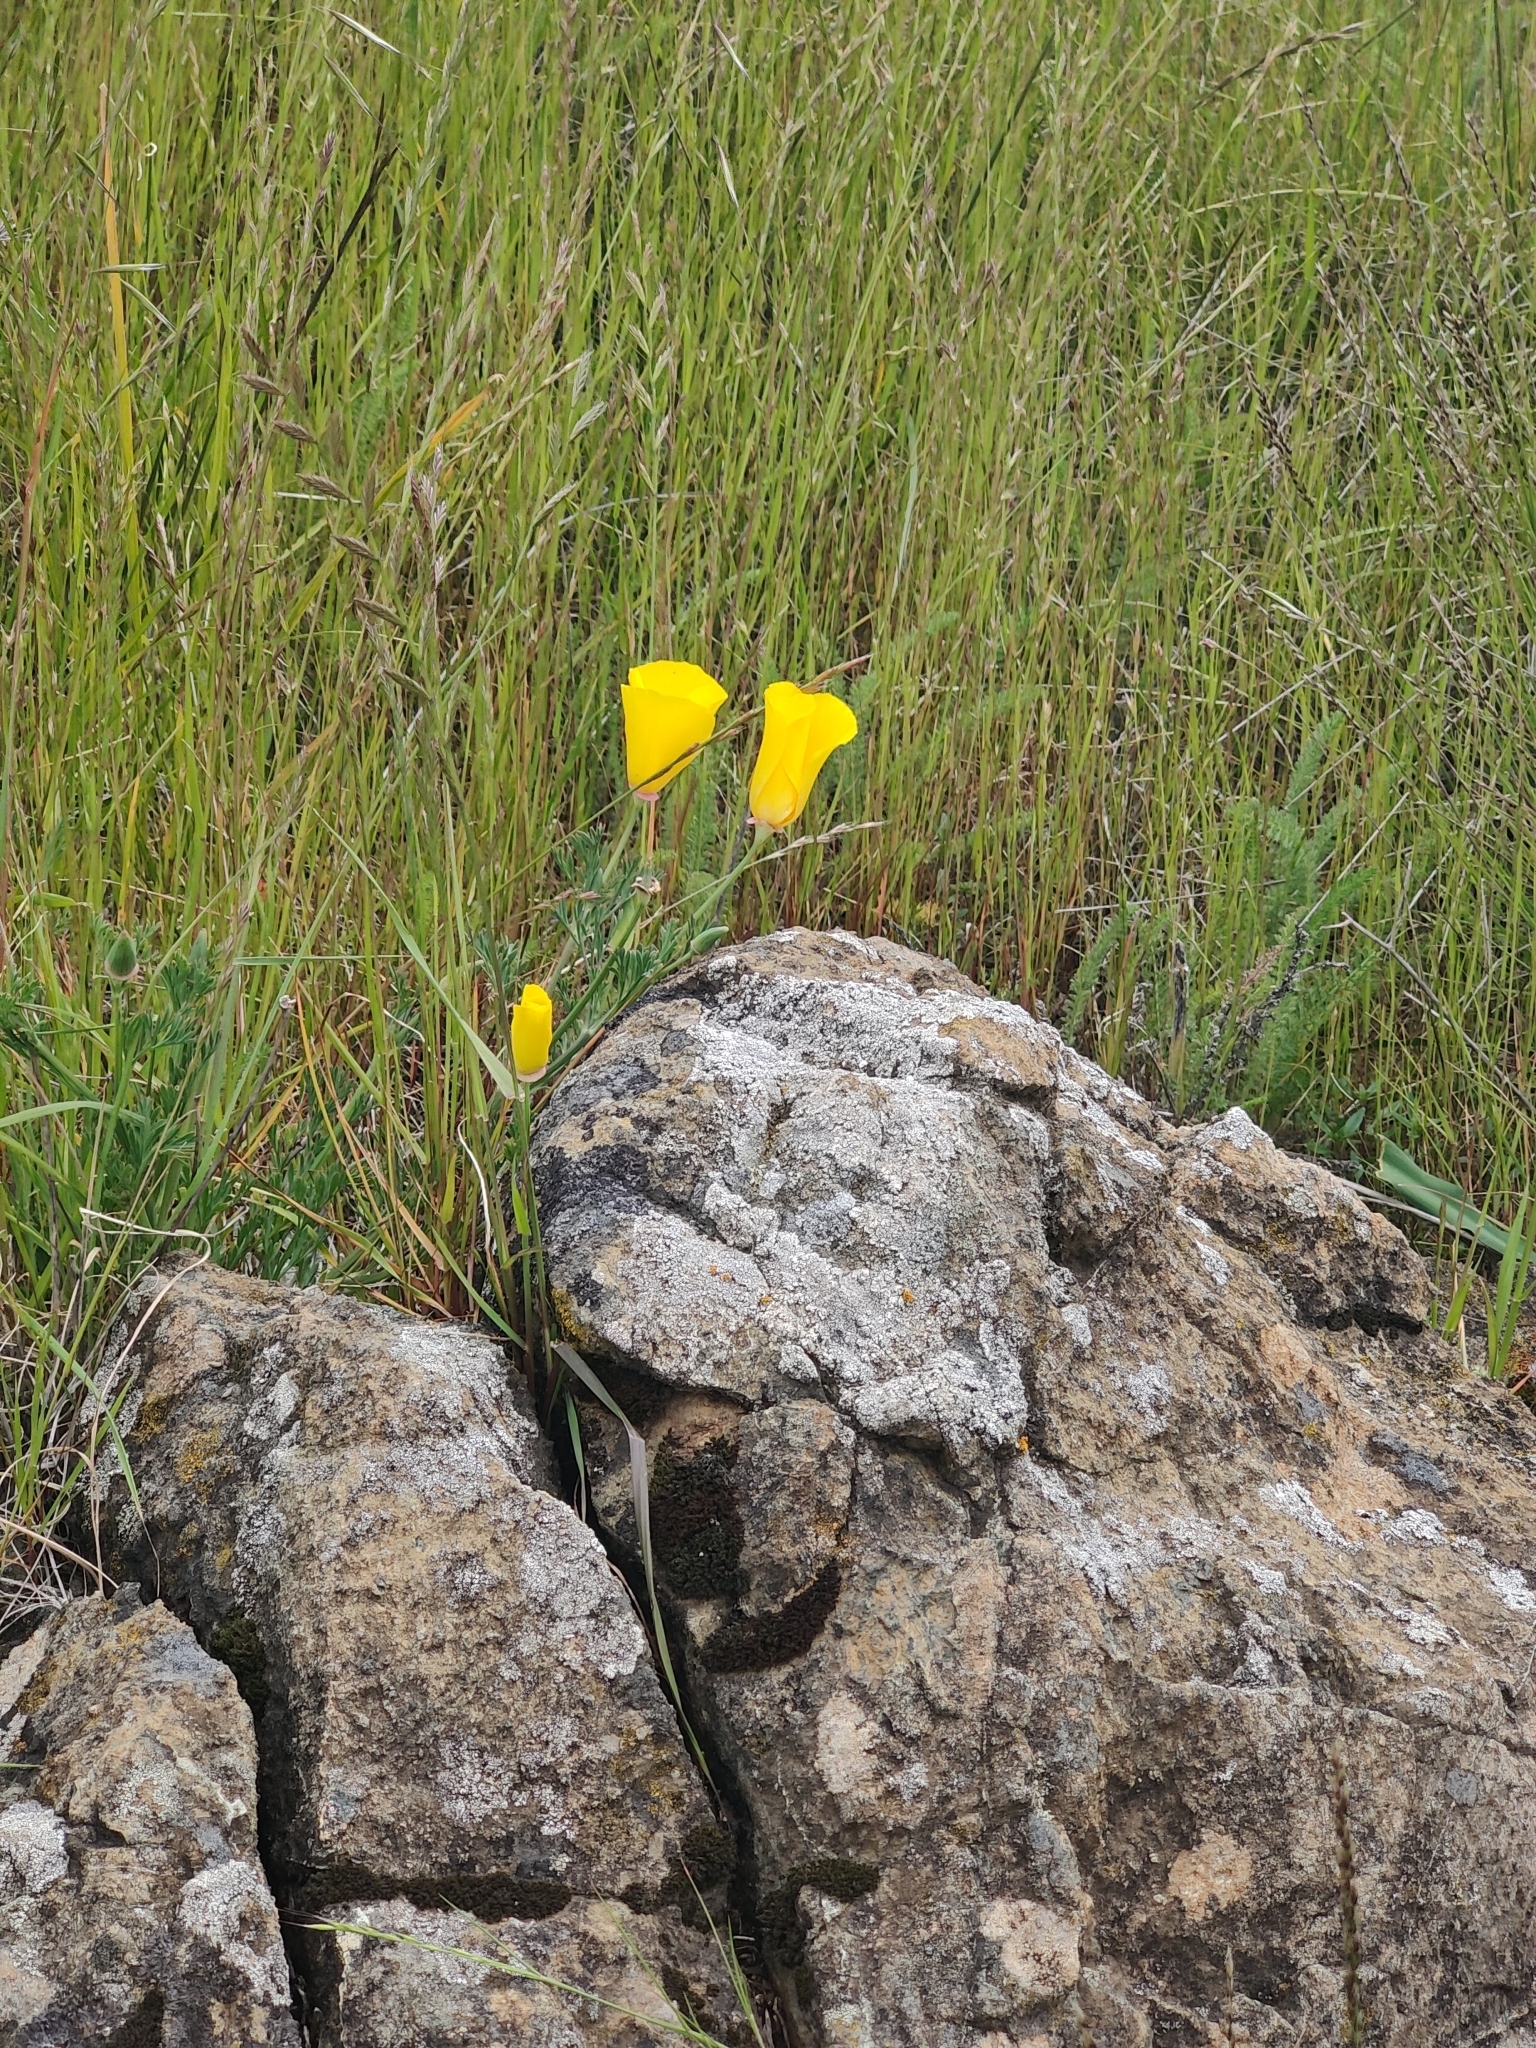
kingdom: Plantae
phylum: Tracheophyta
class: Magnoliopsida
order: Ranunculales
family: Papaveraceae
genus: Eschscholzia
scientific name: Eschscholzia californica
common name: California poppy
